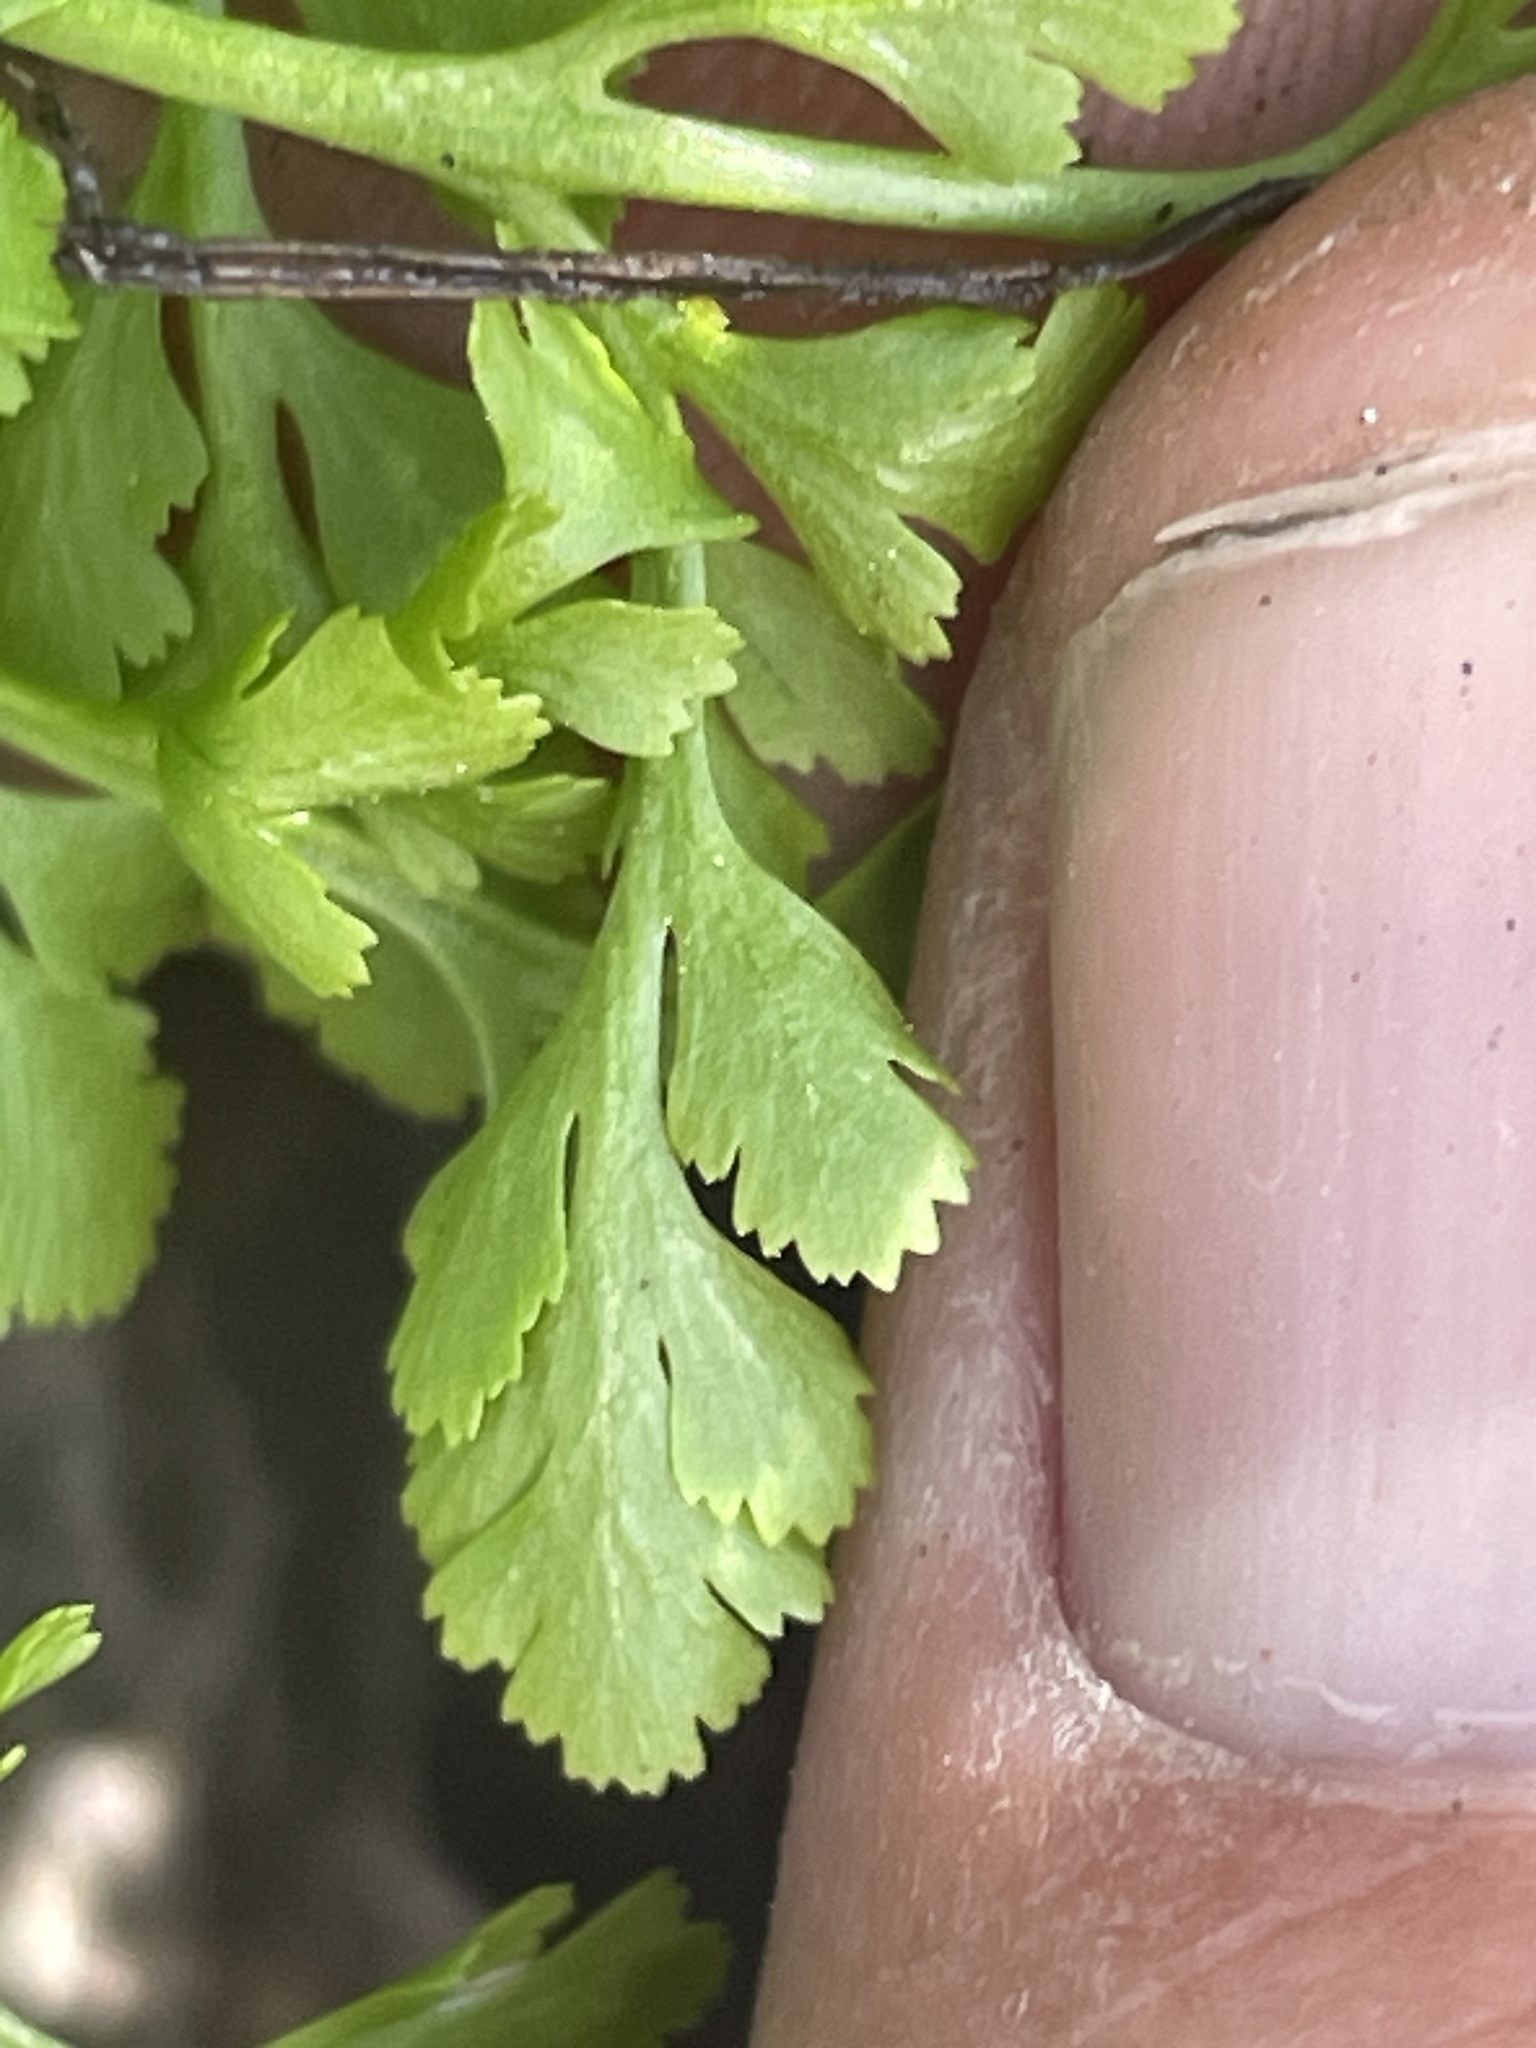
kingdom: Plantae
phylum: Tracheophyta
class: Polypodiopsida
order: Polypodiales
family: Pteridaceae
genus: Cryptogramma
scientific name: Cryptogramma acrostichoides
